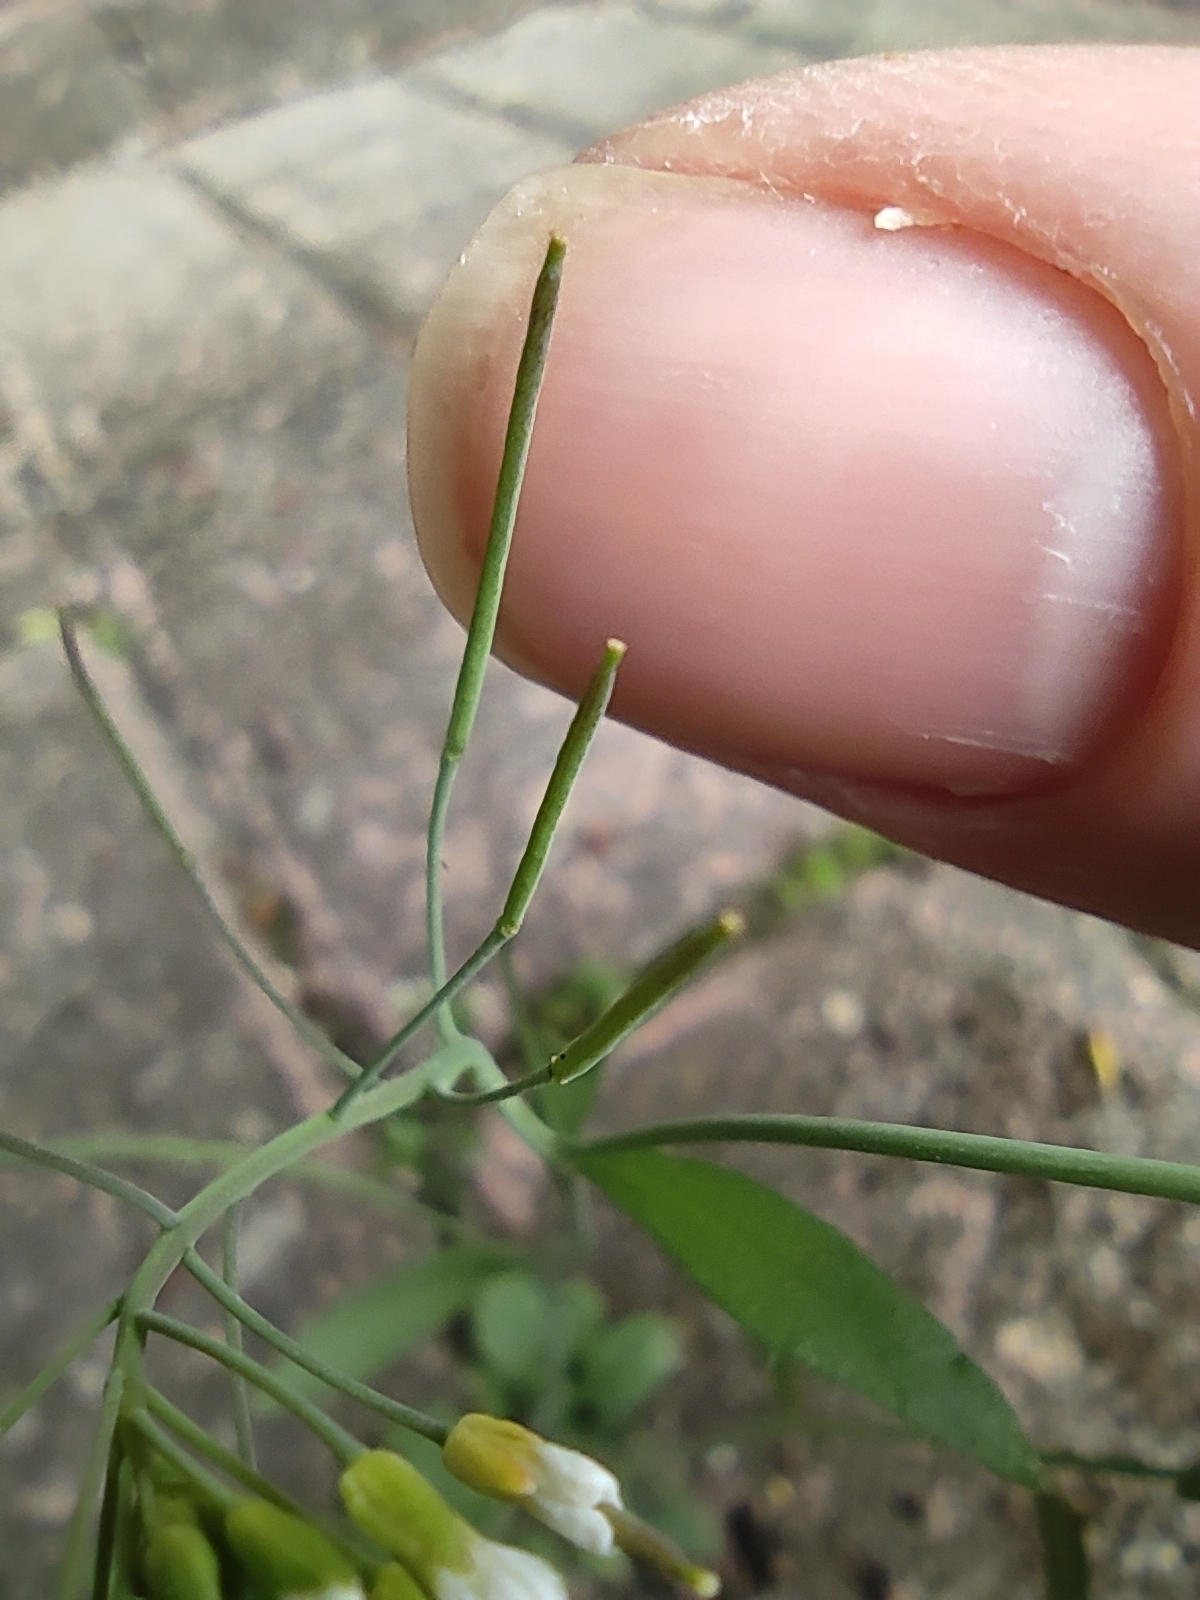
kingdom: Plantae
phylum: Tracheophyta
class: Magnoliopsida
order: Brassicales
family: Brassicaceae
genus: Arabidopsis
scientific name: Arabidopsis thaliana
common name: Thale cress
